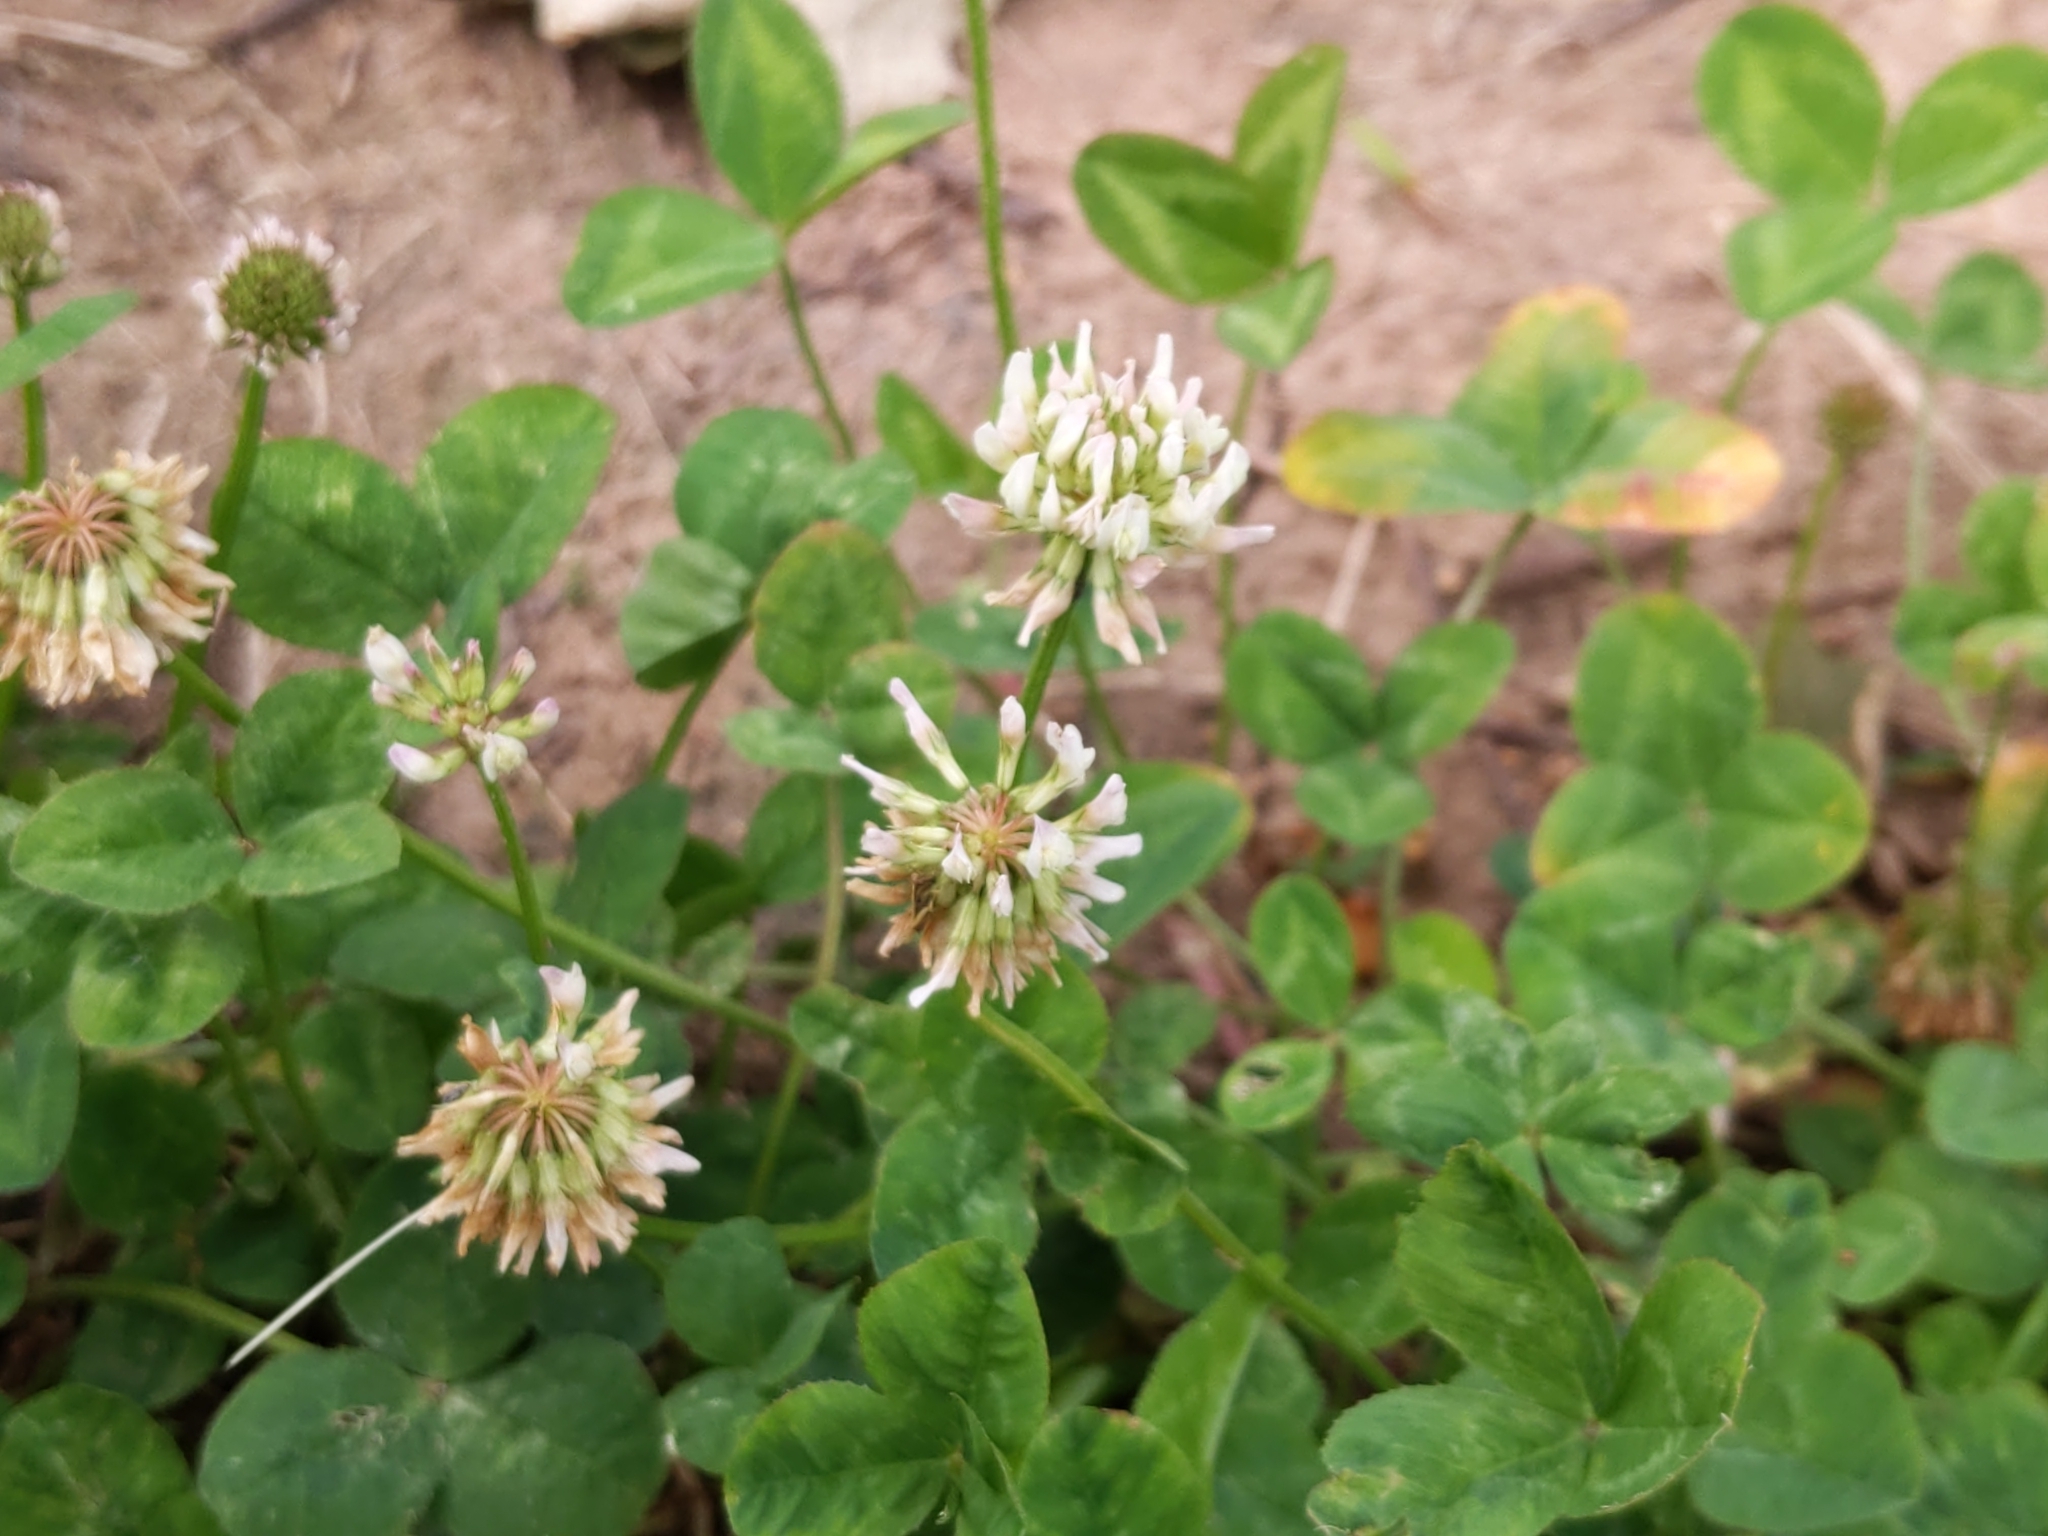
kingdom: Plantae
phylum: Tracheophyta
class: Magnoliopsida
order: Fabales
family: Fabaceae
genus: Trifolium
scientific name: Trifolium repens
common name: White clover
